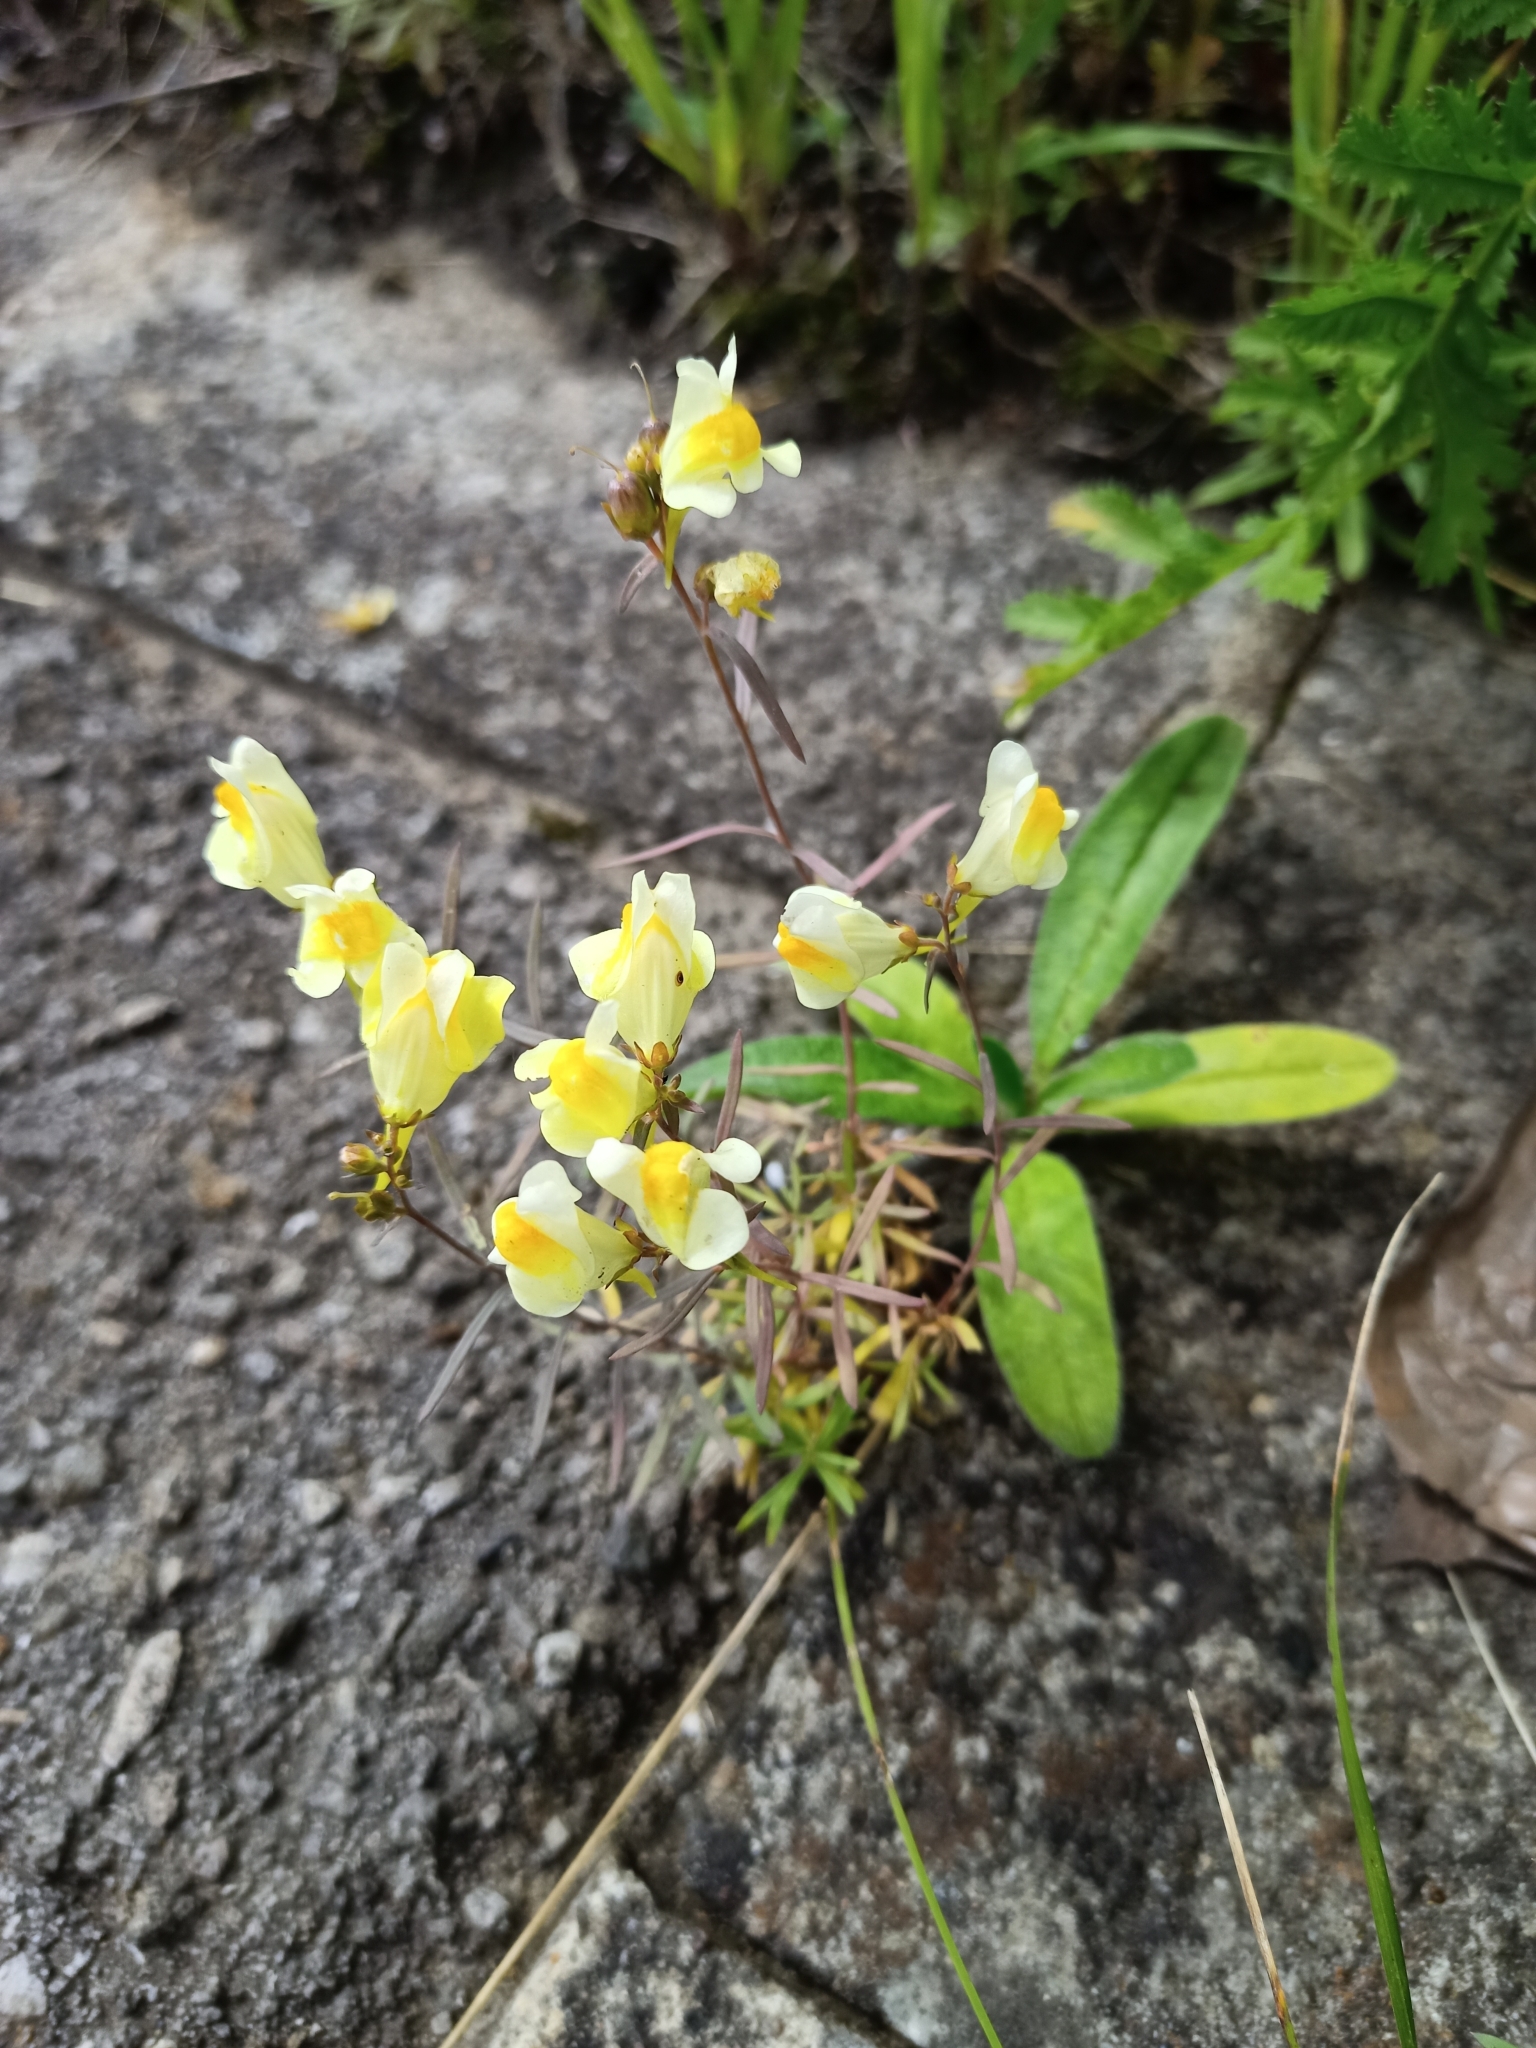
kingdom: Plantae
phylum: Tracheophyta
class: Magnoliopsida
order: Lamiales
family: Plantaginaceae
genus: Linaria
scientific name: Linaria vulgaris
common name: Butter and eggs
